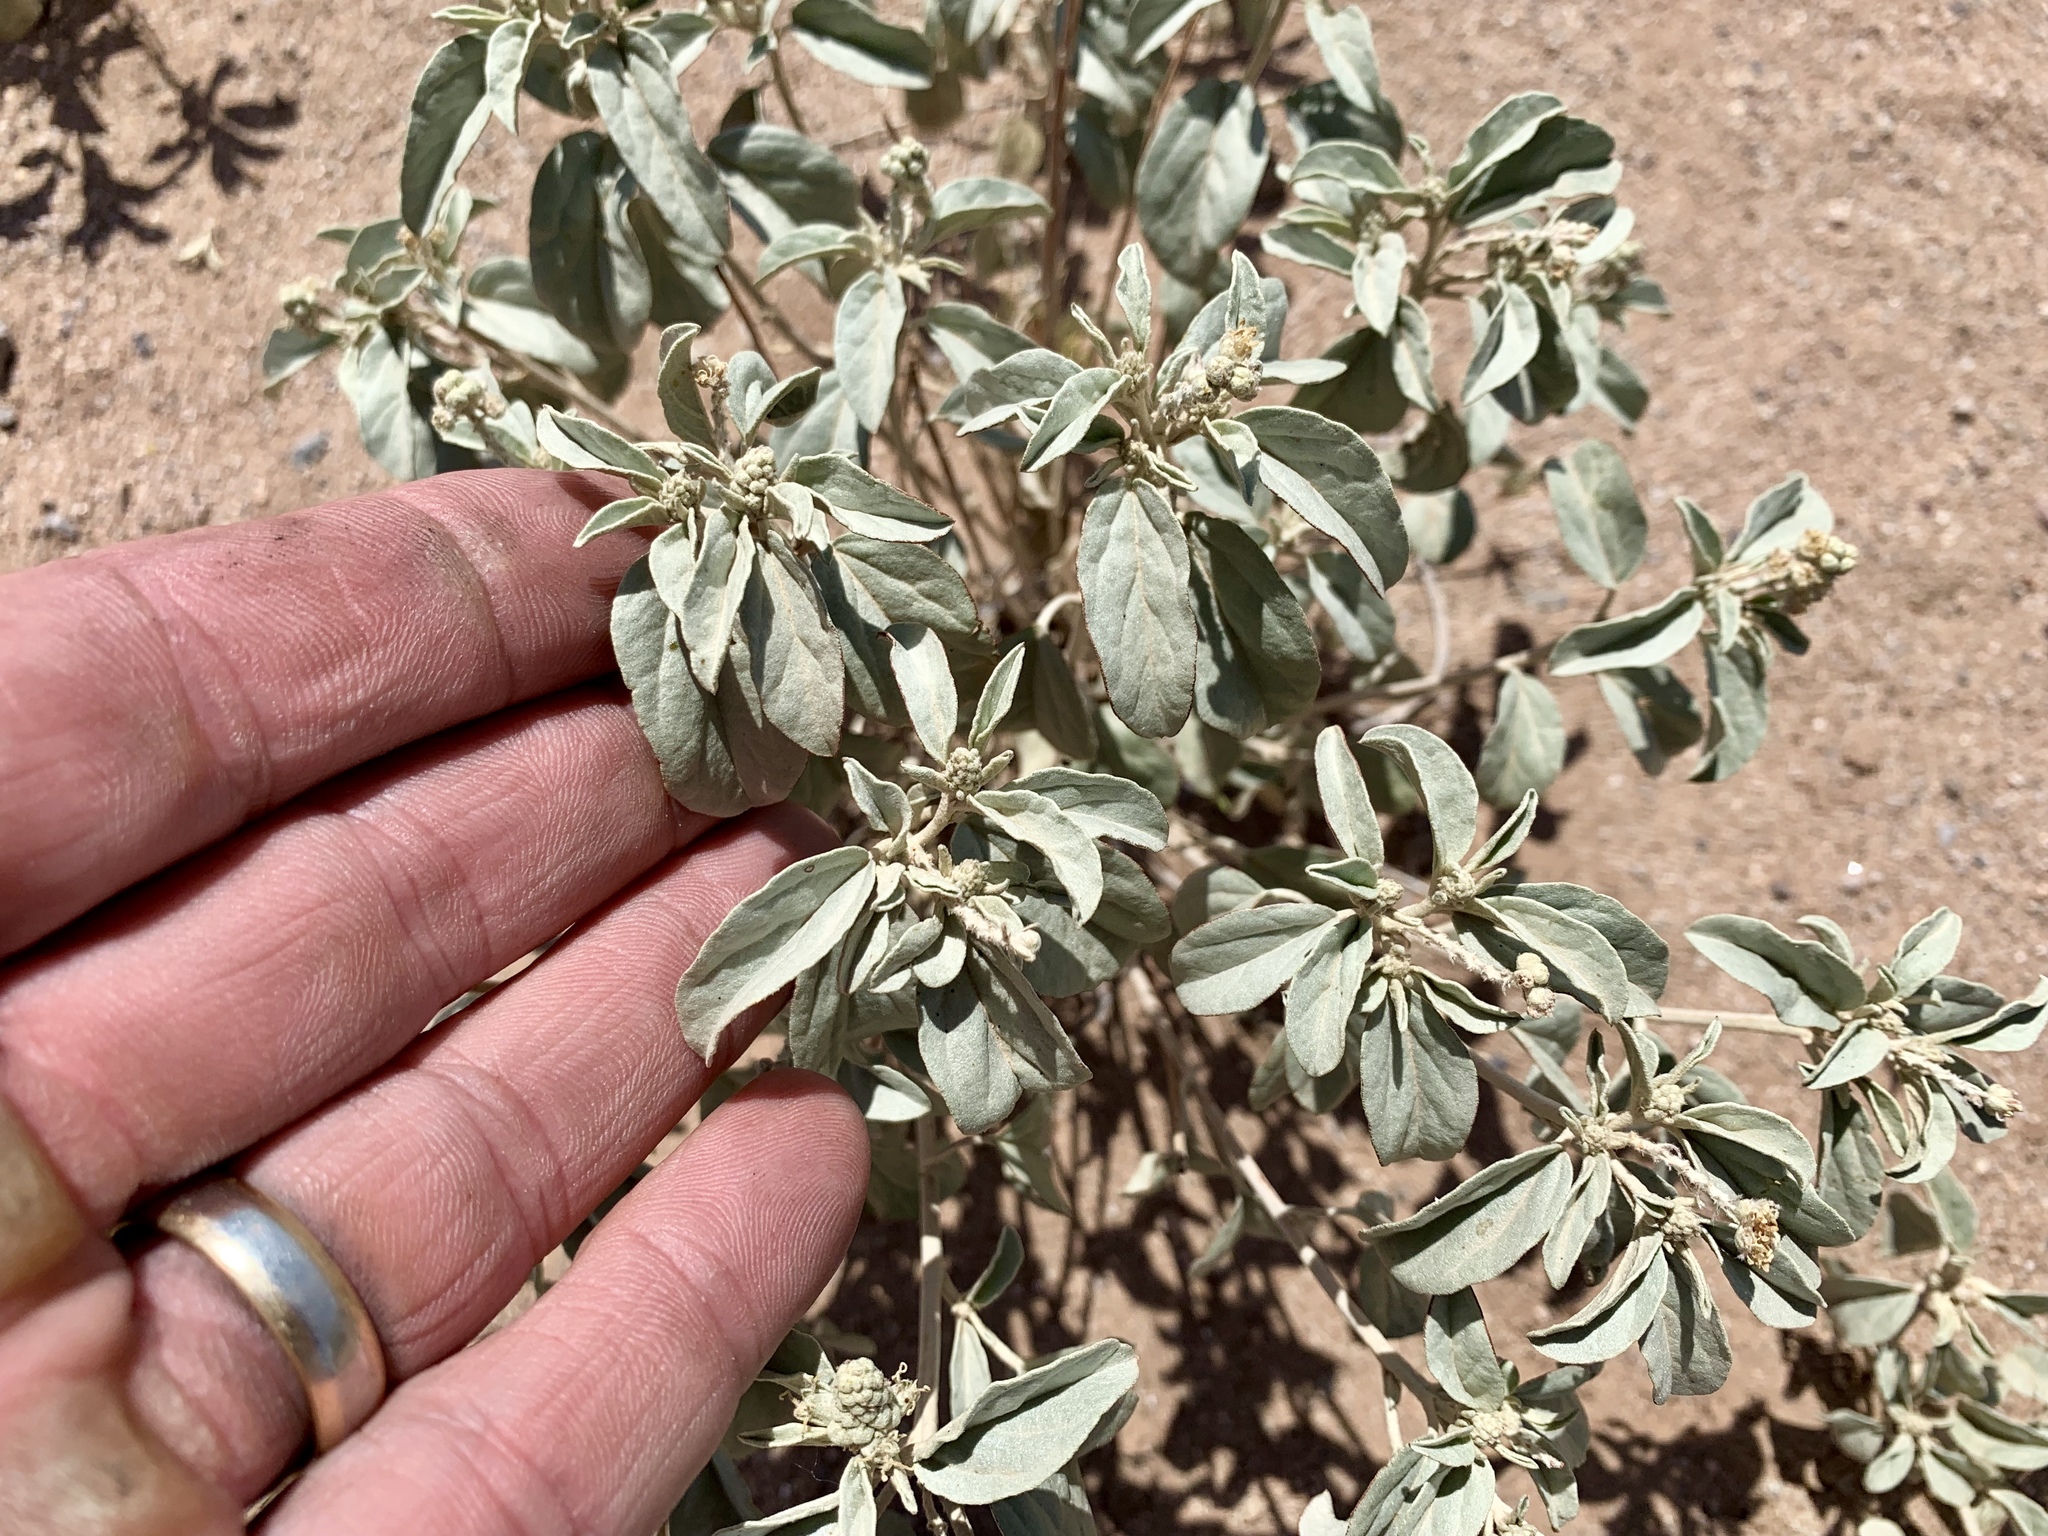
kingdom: Plantae
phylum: Tracheophyta
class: Magnoliopsida
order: Malpighiales
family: Euphorbiaceae
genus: Croton
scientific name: Croton pottsii
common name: Leatherweed
